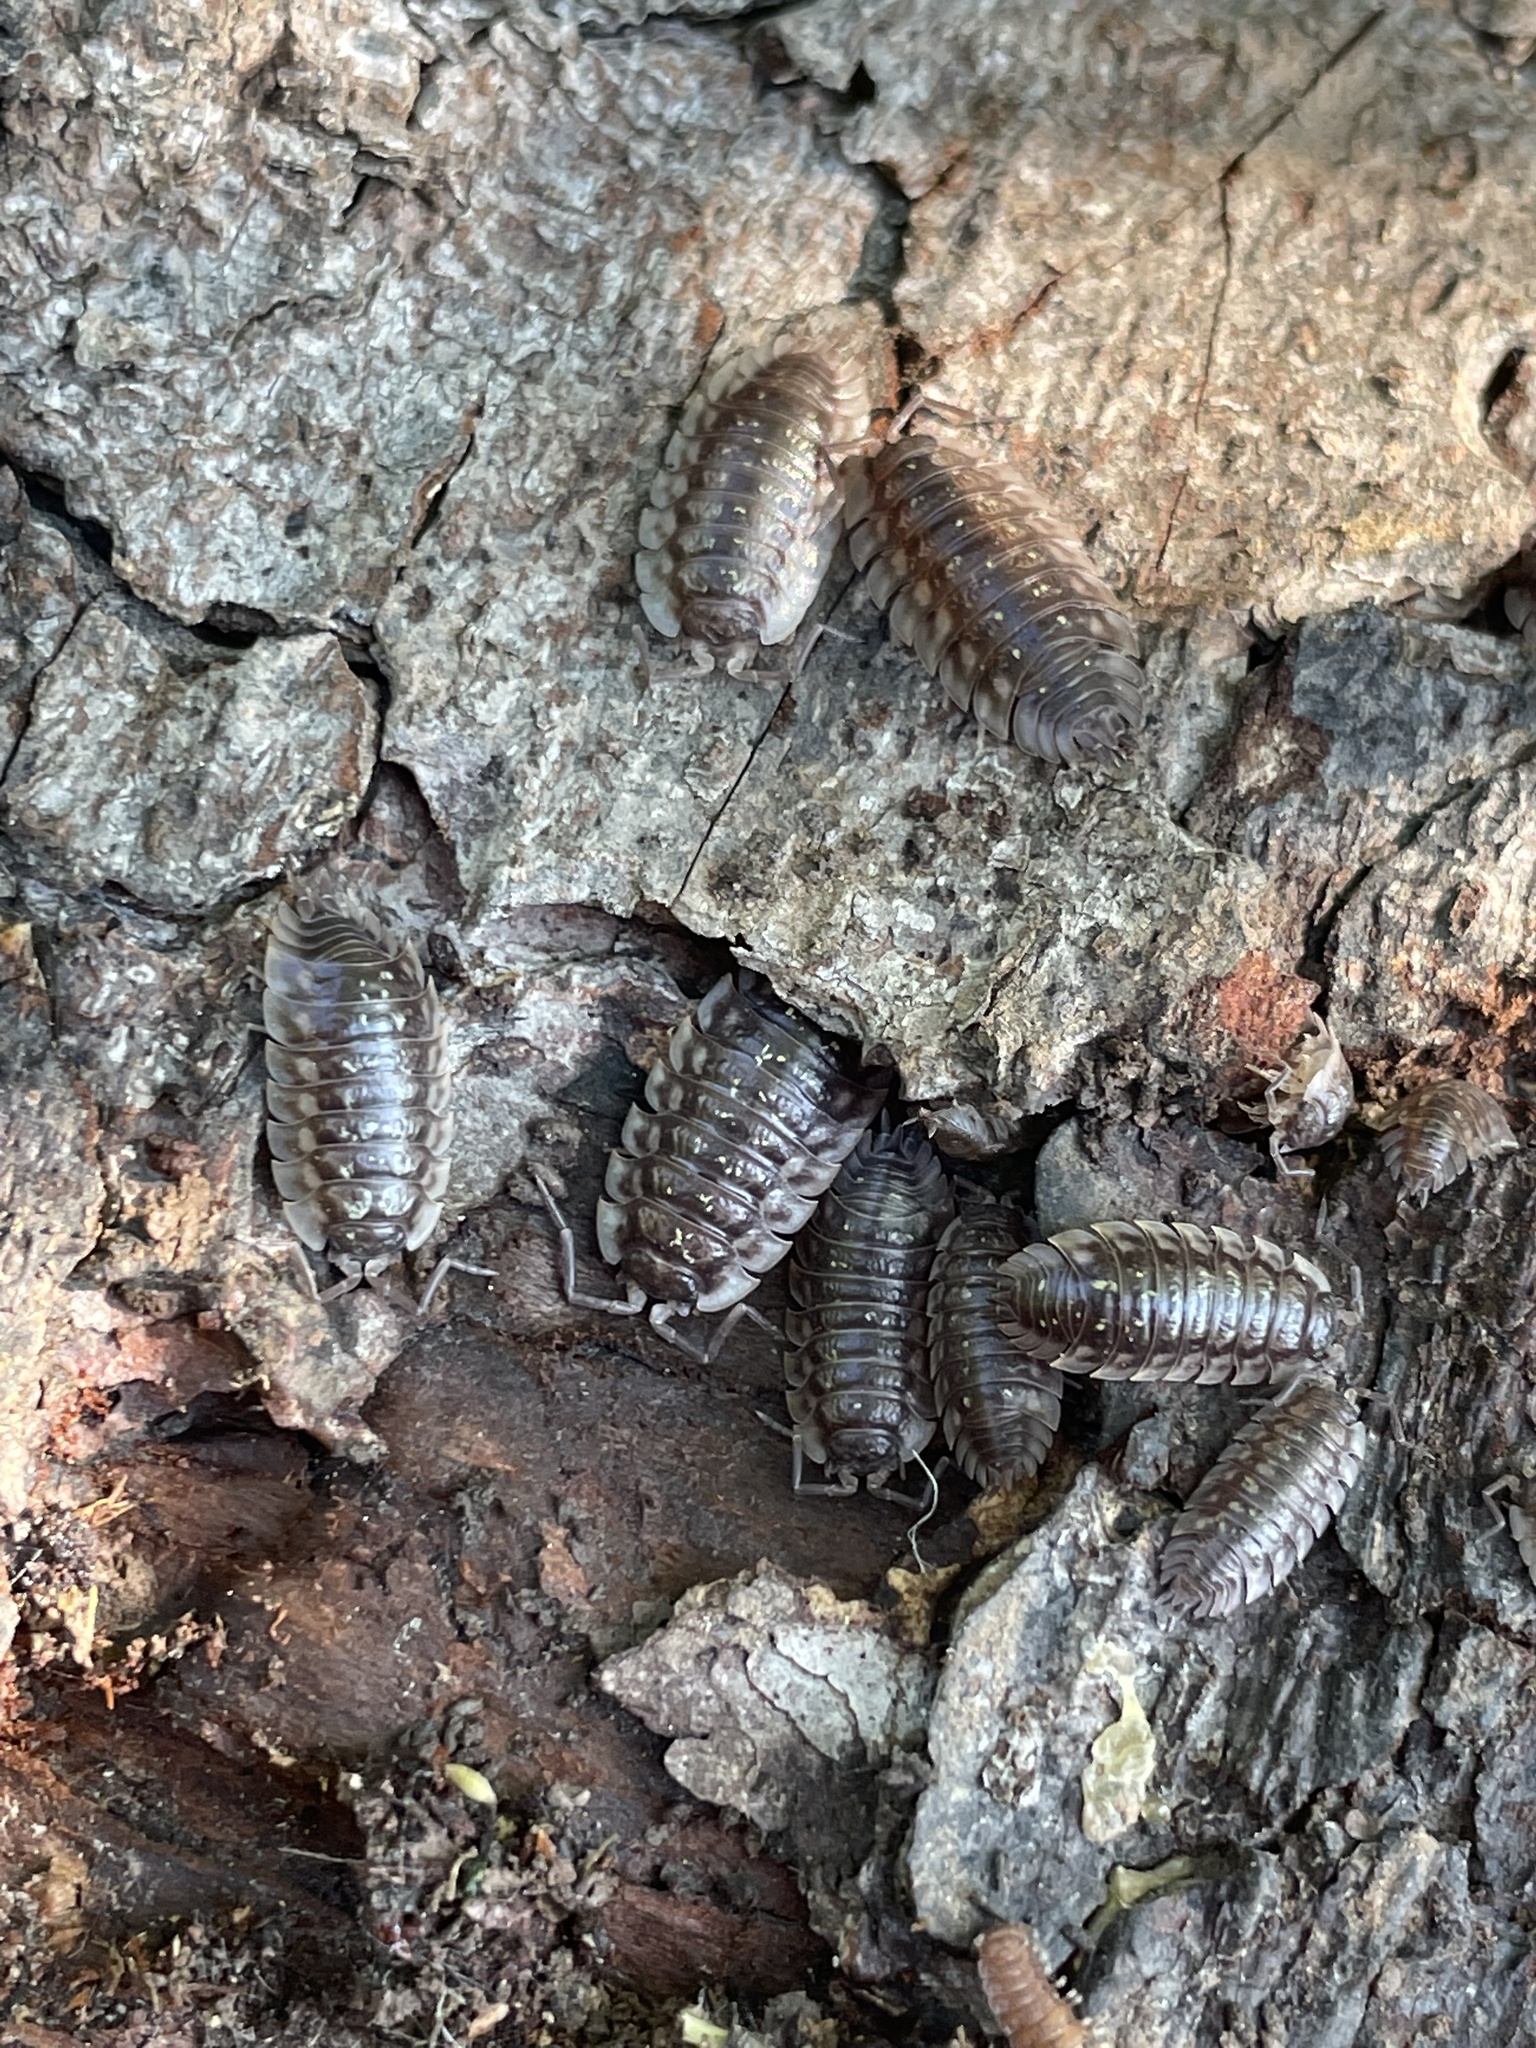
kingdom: Animalia
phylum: Arthropoda
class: Malacostraca
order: Isopoda
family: Oniscidae
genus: Oniscus
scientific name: Oniscus asellus
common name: Common shiny woodlouse
